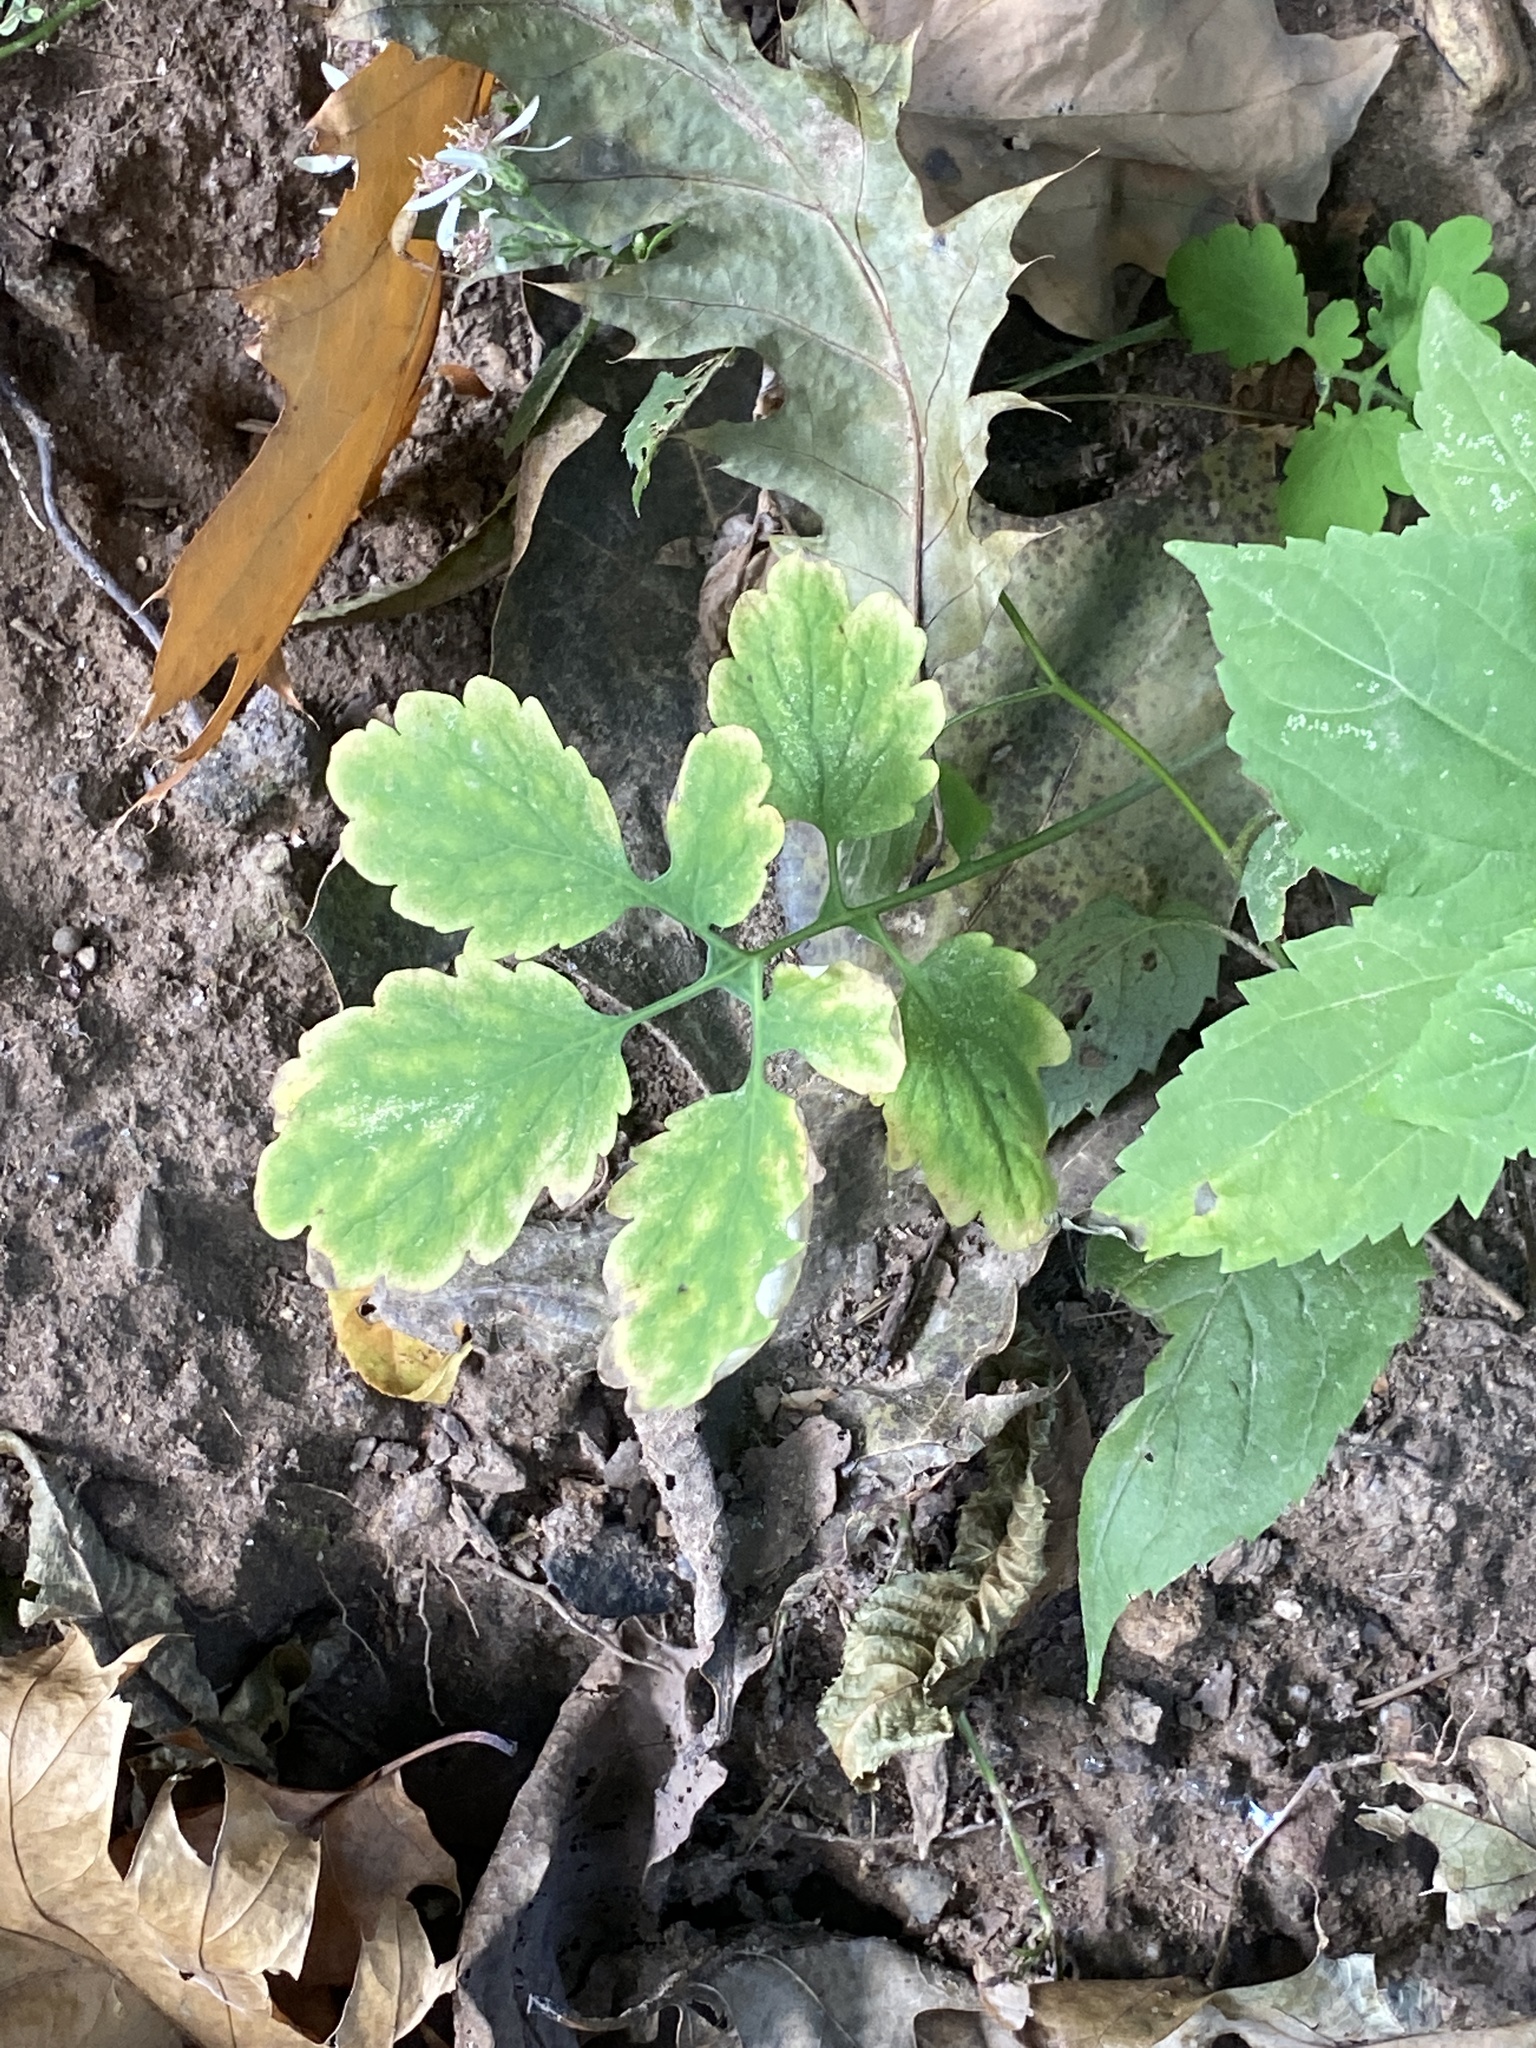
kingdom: Plantae
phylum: Tracheophyta
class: Magnoliopsida
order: Ranunculales
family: Papaveraceae
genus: Chelidonium
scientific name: Chelidonium majus
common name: Greater celandine
